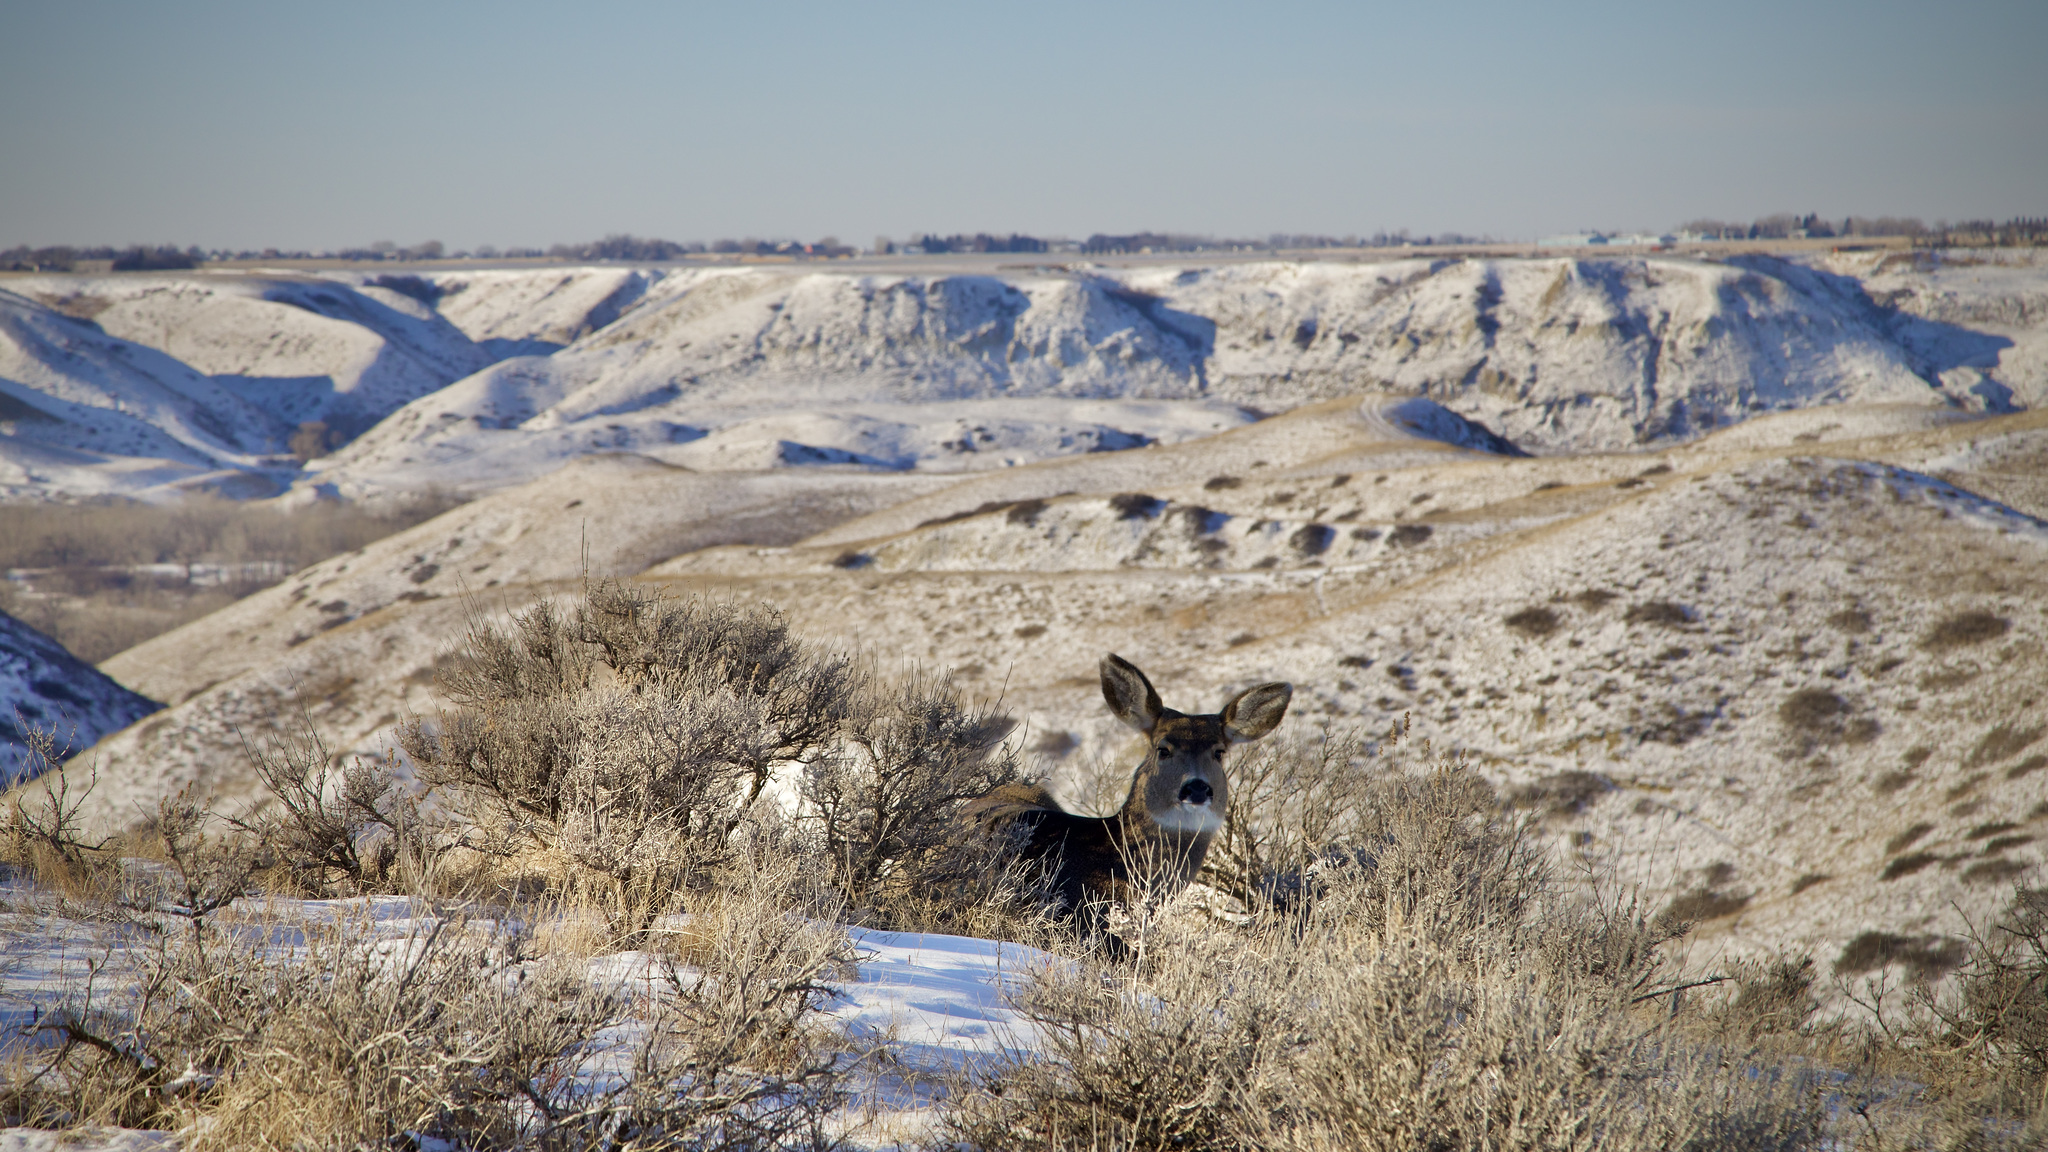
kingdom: Animalia
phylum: Chordata
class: Mammalia
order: Artiodactyla
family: Cervidae
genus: Odocoileus
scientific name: Odocoileus hemionus
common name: Mule deer
